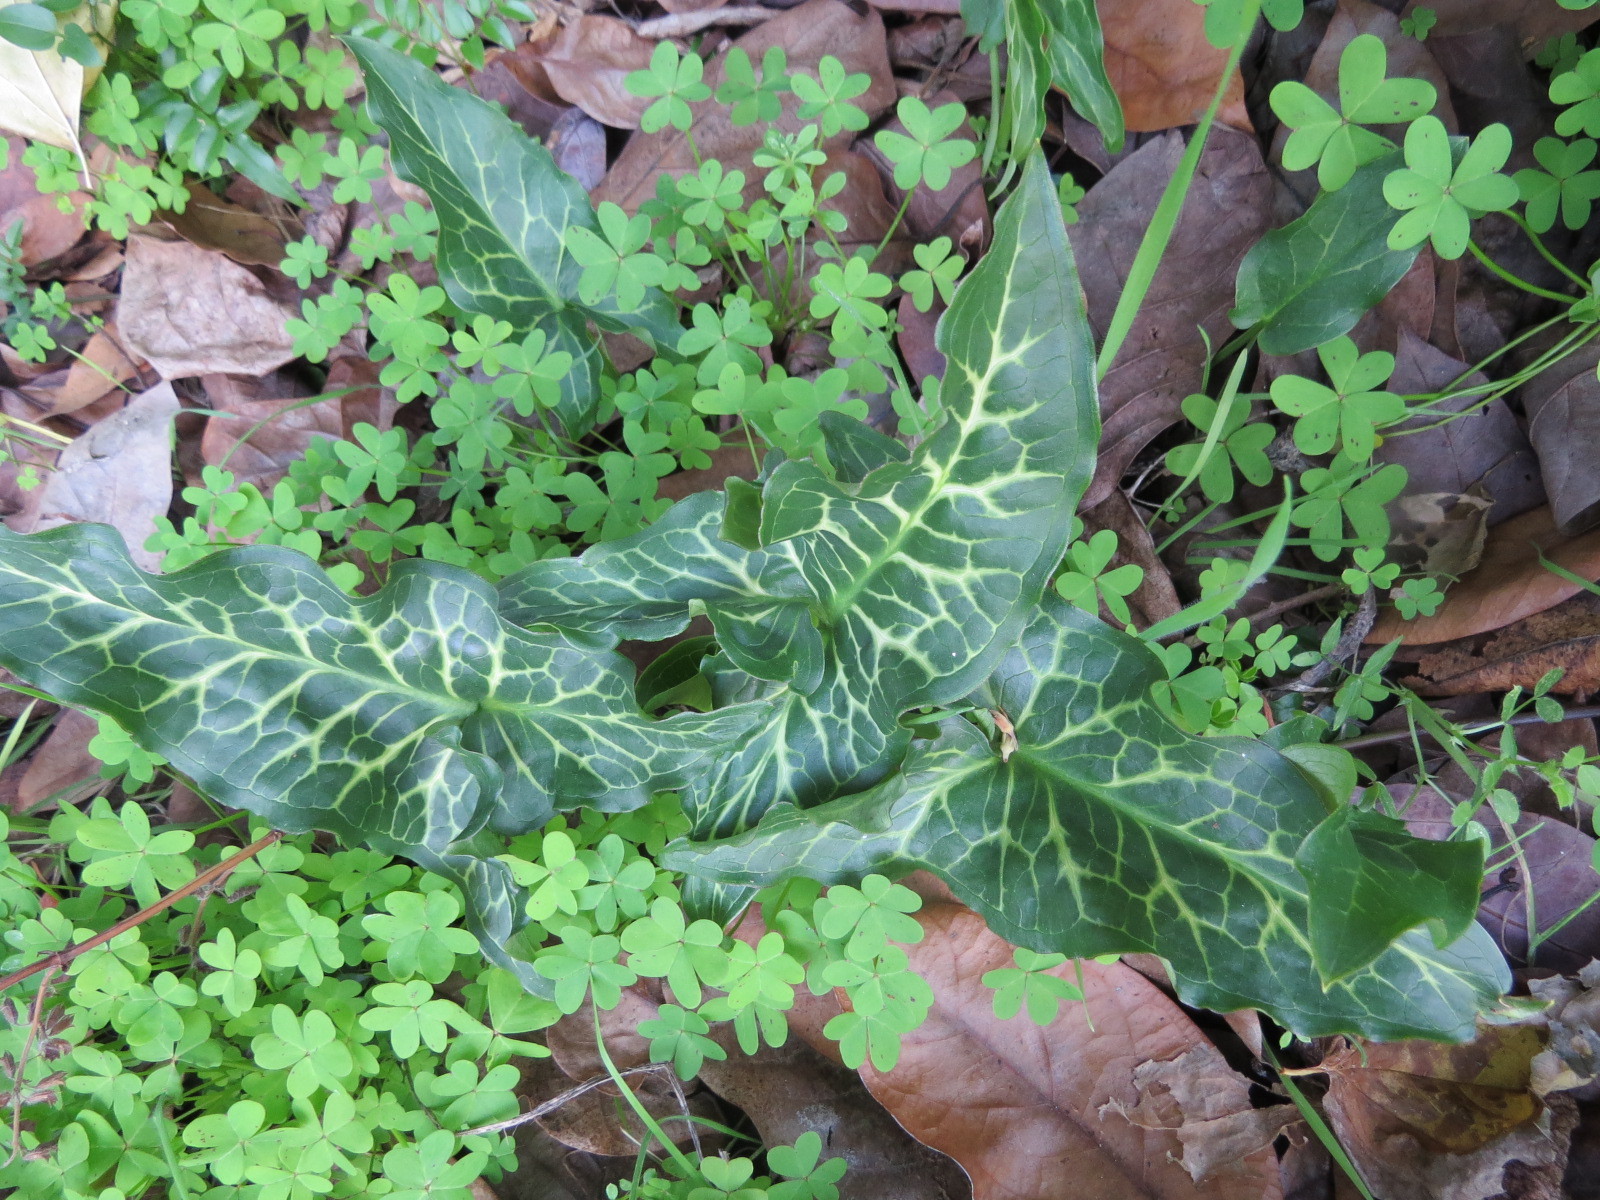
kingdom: Plantae
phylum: Tracheophyta
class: Liliopsida
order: Alismatales
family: Araceae
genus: Arum
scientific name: Arum italicum
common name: Italian lords-and-ladies
